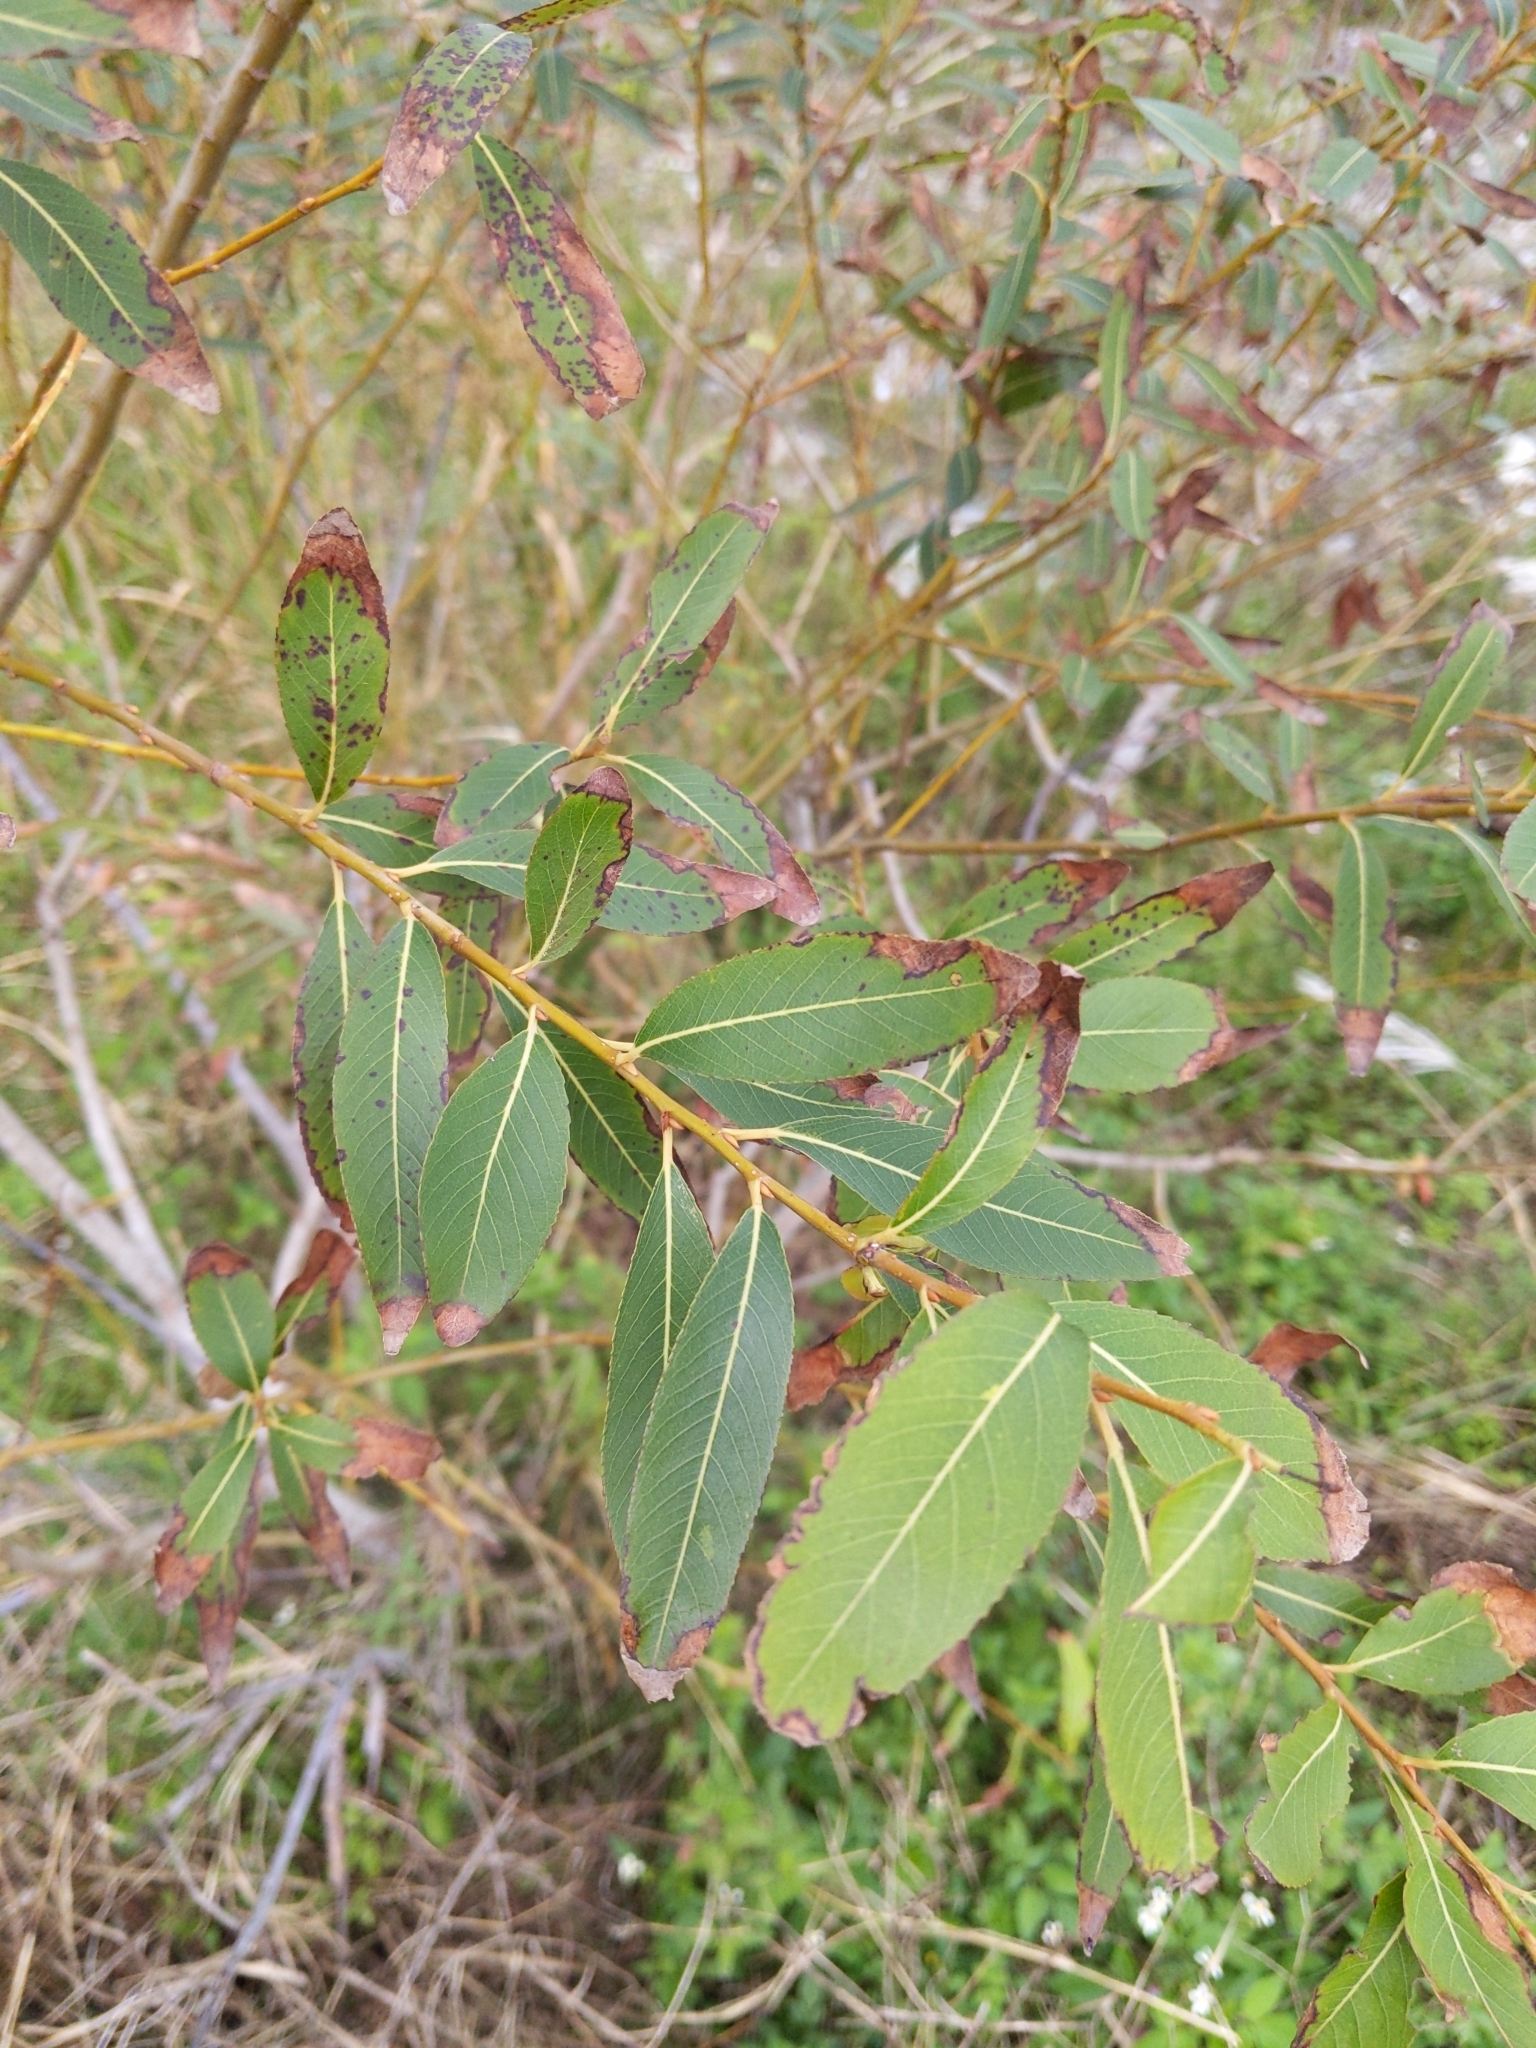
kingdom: Plantae
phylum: Tracheophyta
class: Magnoliopsida
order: Malpighiales
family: Salicaceae
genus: Salix
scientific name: Salix mesnyi
